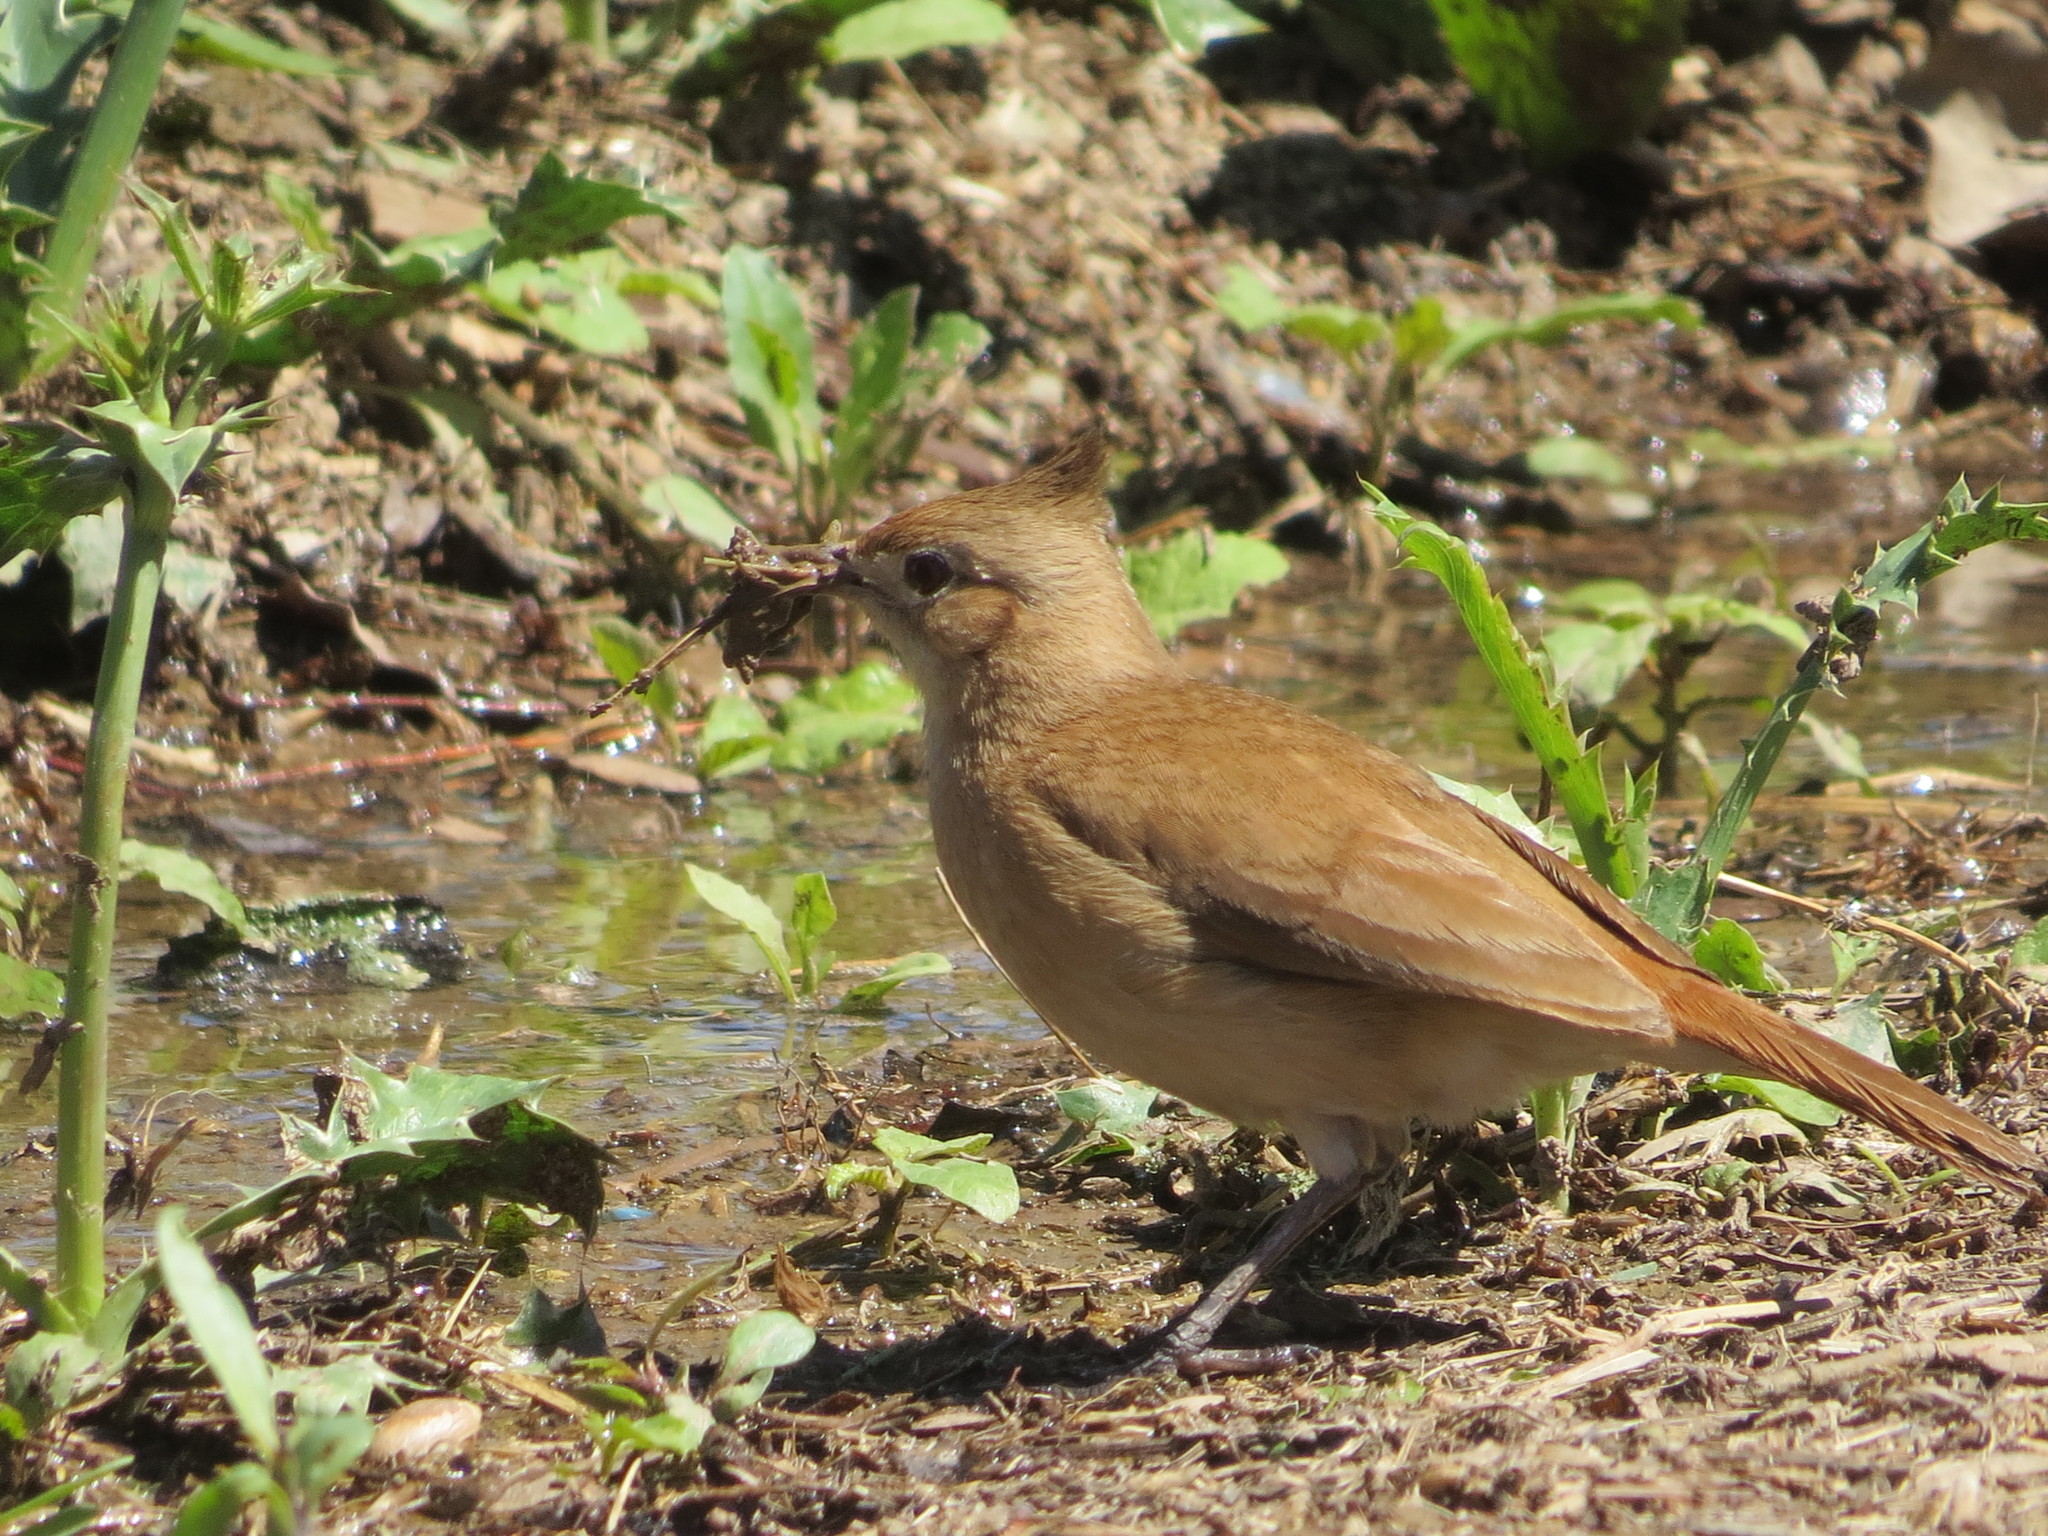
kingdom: Animalia
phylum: Chordata
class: Aves
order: Passeriformes
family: Furnariidae
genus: Furnarius
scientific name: Furnarius cristatus
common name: Crested hornero
